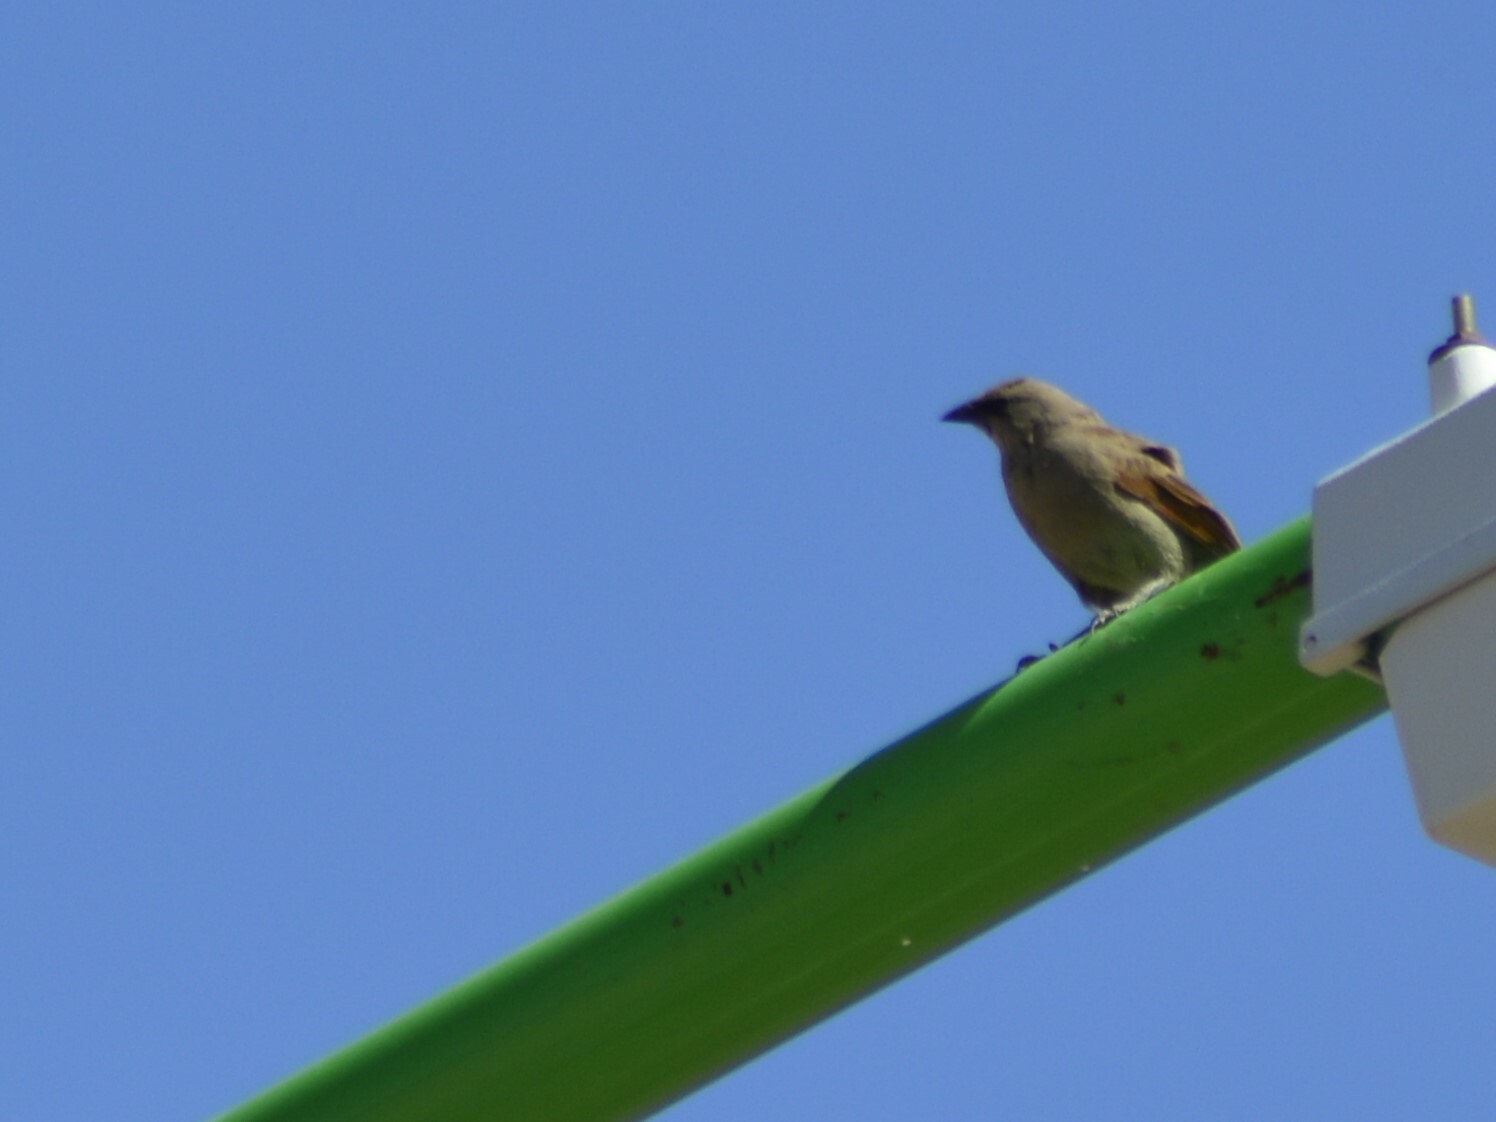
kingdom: Animalia
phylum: Chordata
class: Aves
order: Passeriformes
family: Icteridae
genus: Agelaioides
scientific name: Agelaioides badius
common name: Baywing
